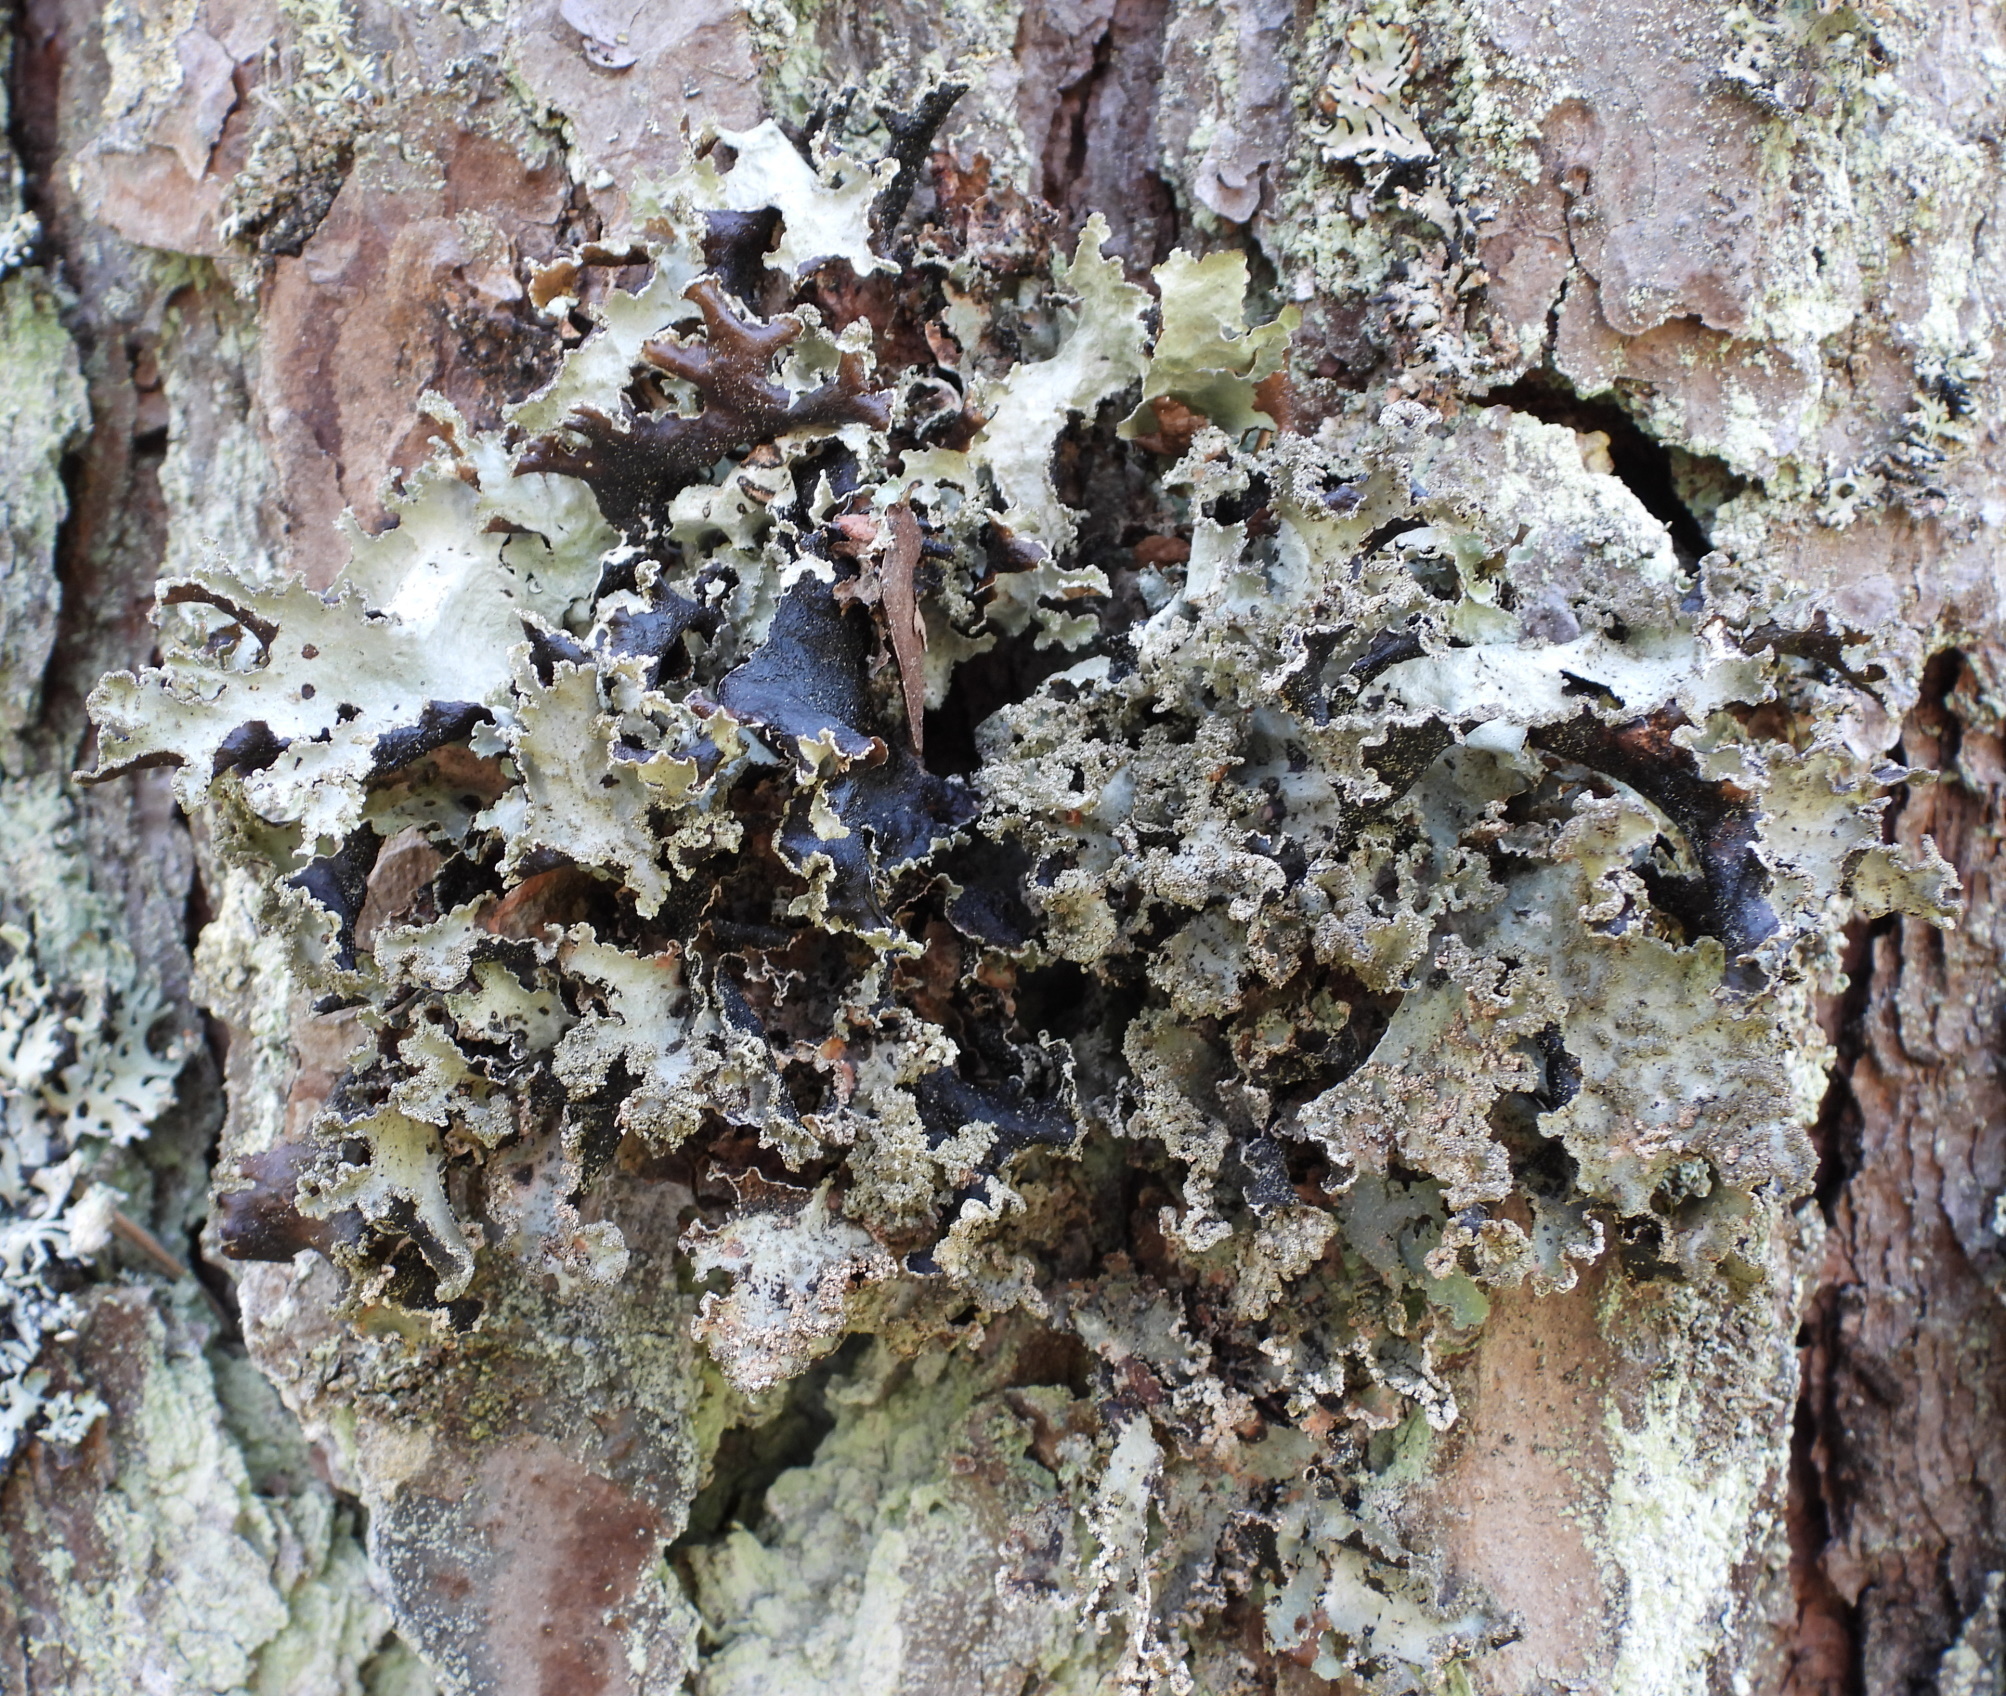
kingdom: Fungi
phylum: Ascomycota
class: Lecanoromycetes
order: Lecanorales
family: Parmeliaceae
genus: Platismatia
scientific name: Platismatia glauca
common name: Varied rag lichen
